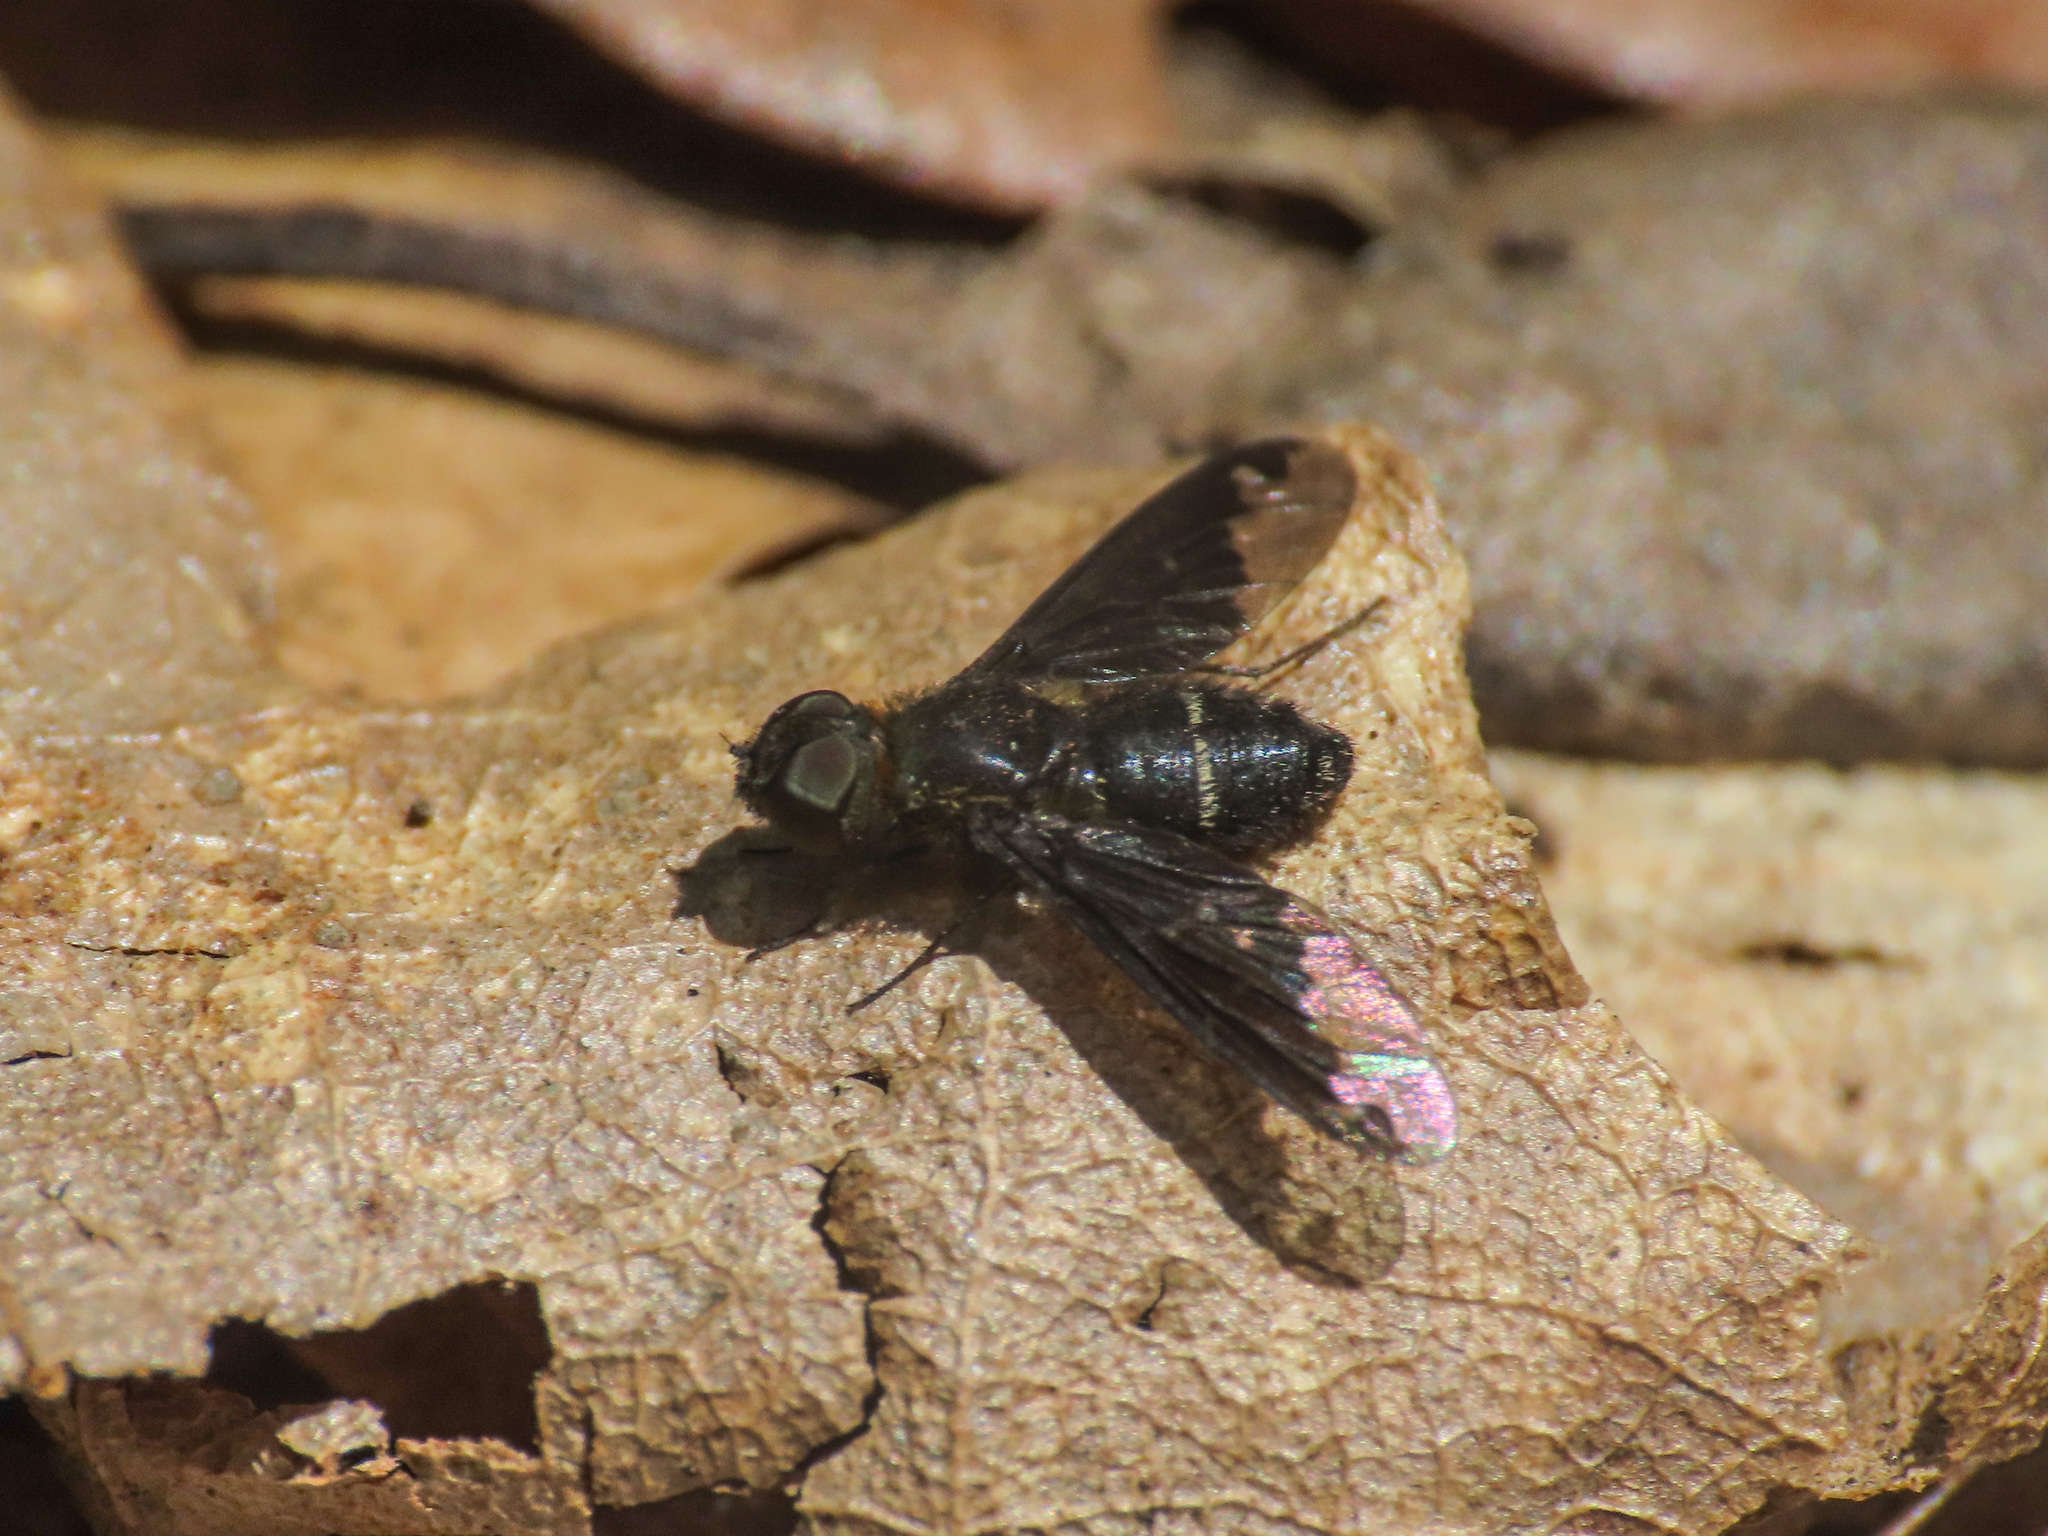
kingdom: Animalia
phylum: Arthropoda
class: Insecta
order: Diptera
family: Bombyliidae
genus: Hemipenthes
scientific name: Hemipenthes velutina
